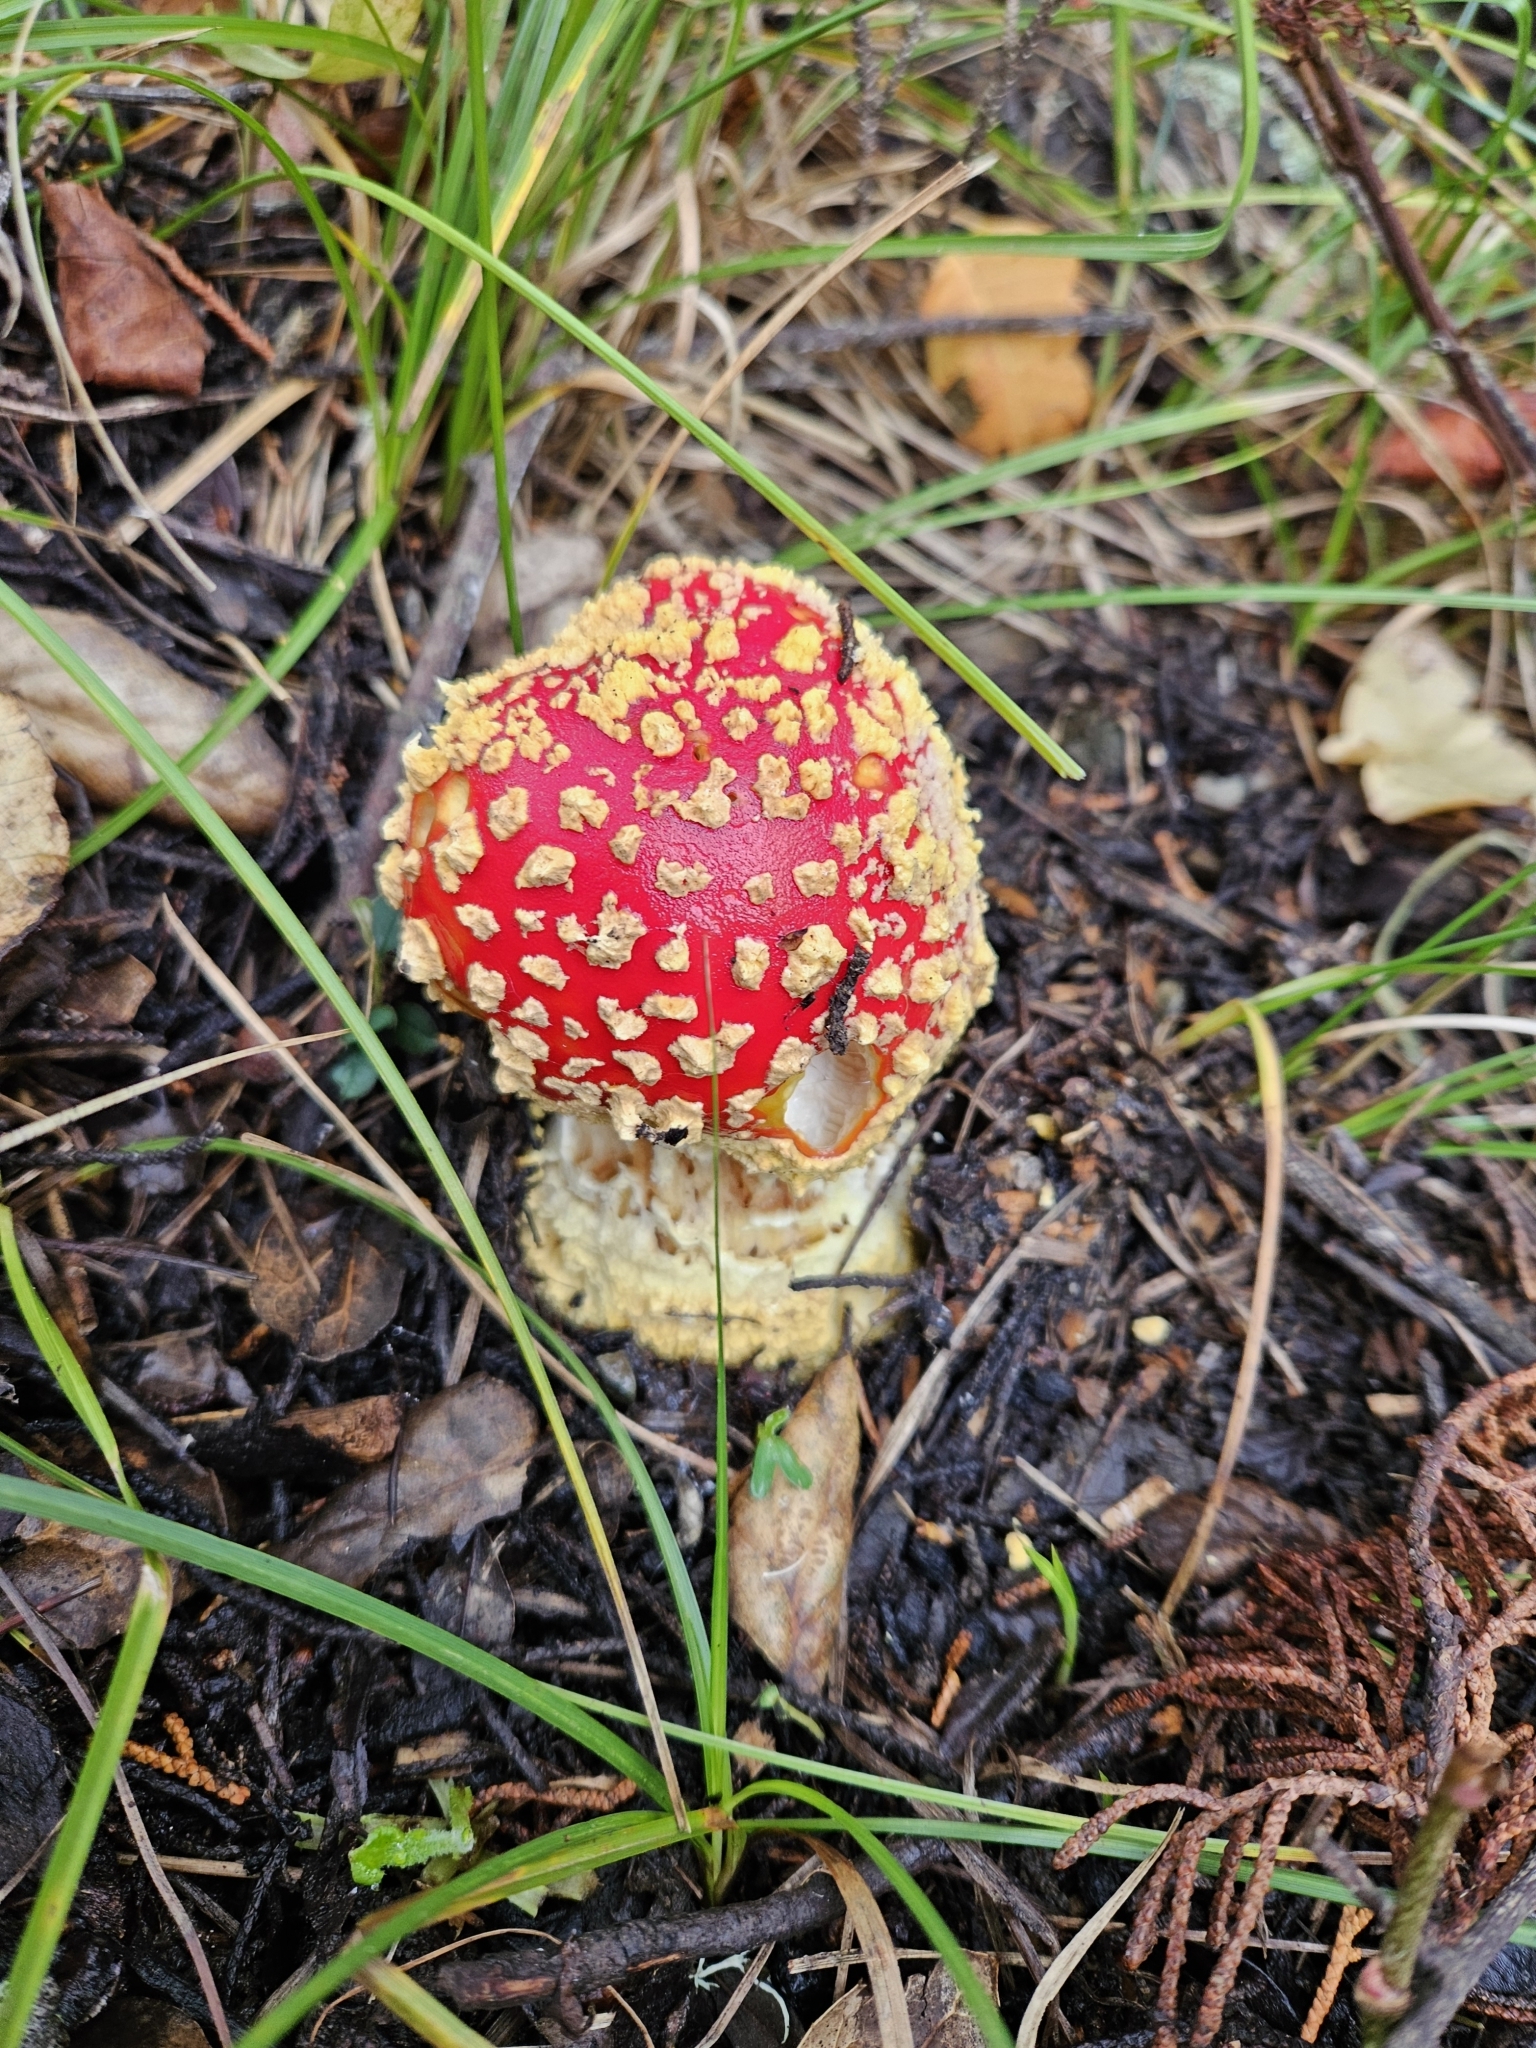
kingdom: Fungi
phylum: Basidiomycota
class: Agaricomycetes
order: Agaricales
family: Amanitaceae
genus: Amanita
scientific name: Amanita muscaria
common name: Fly agaric
